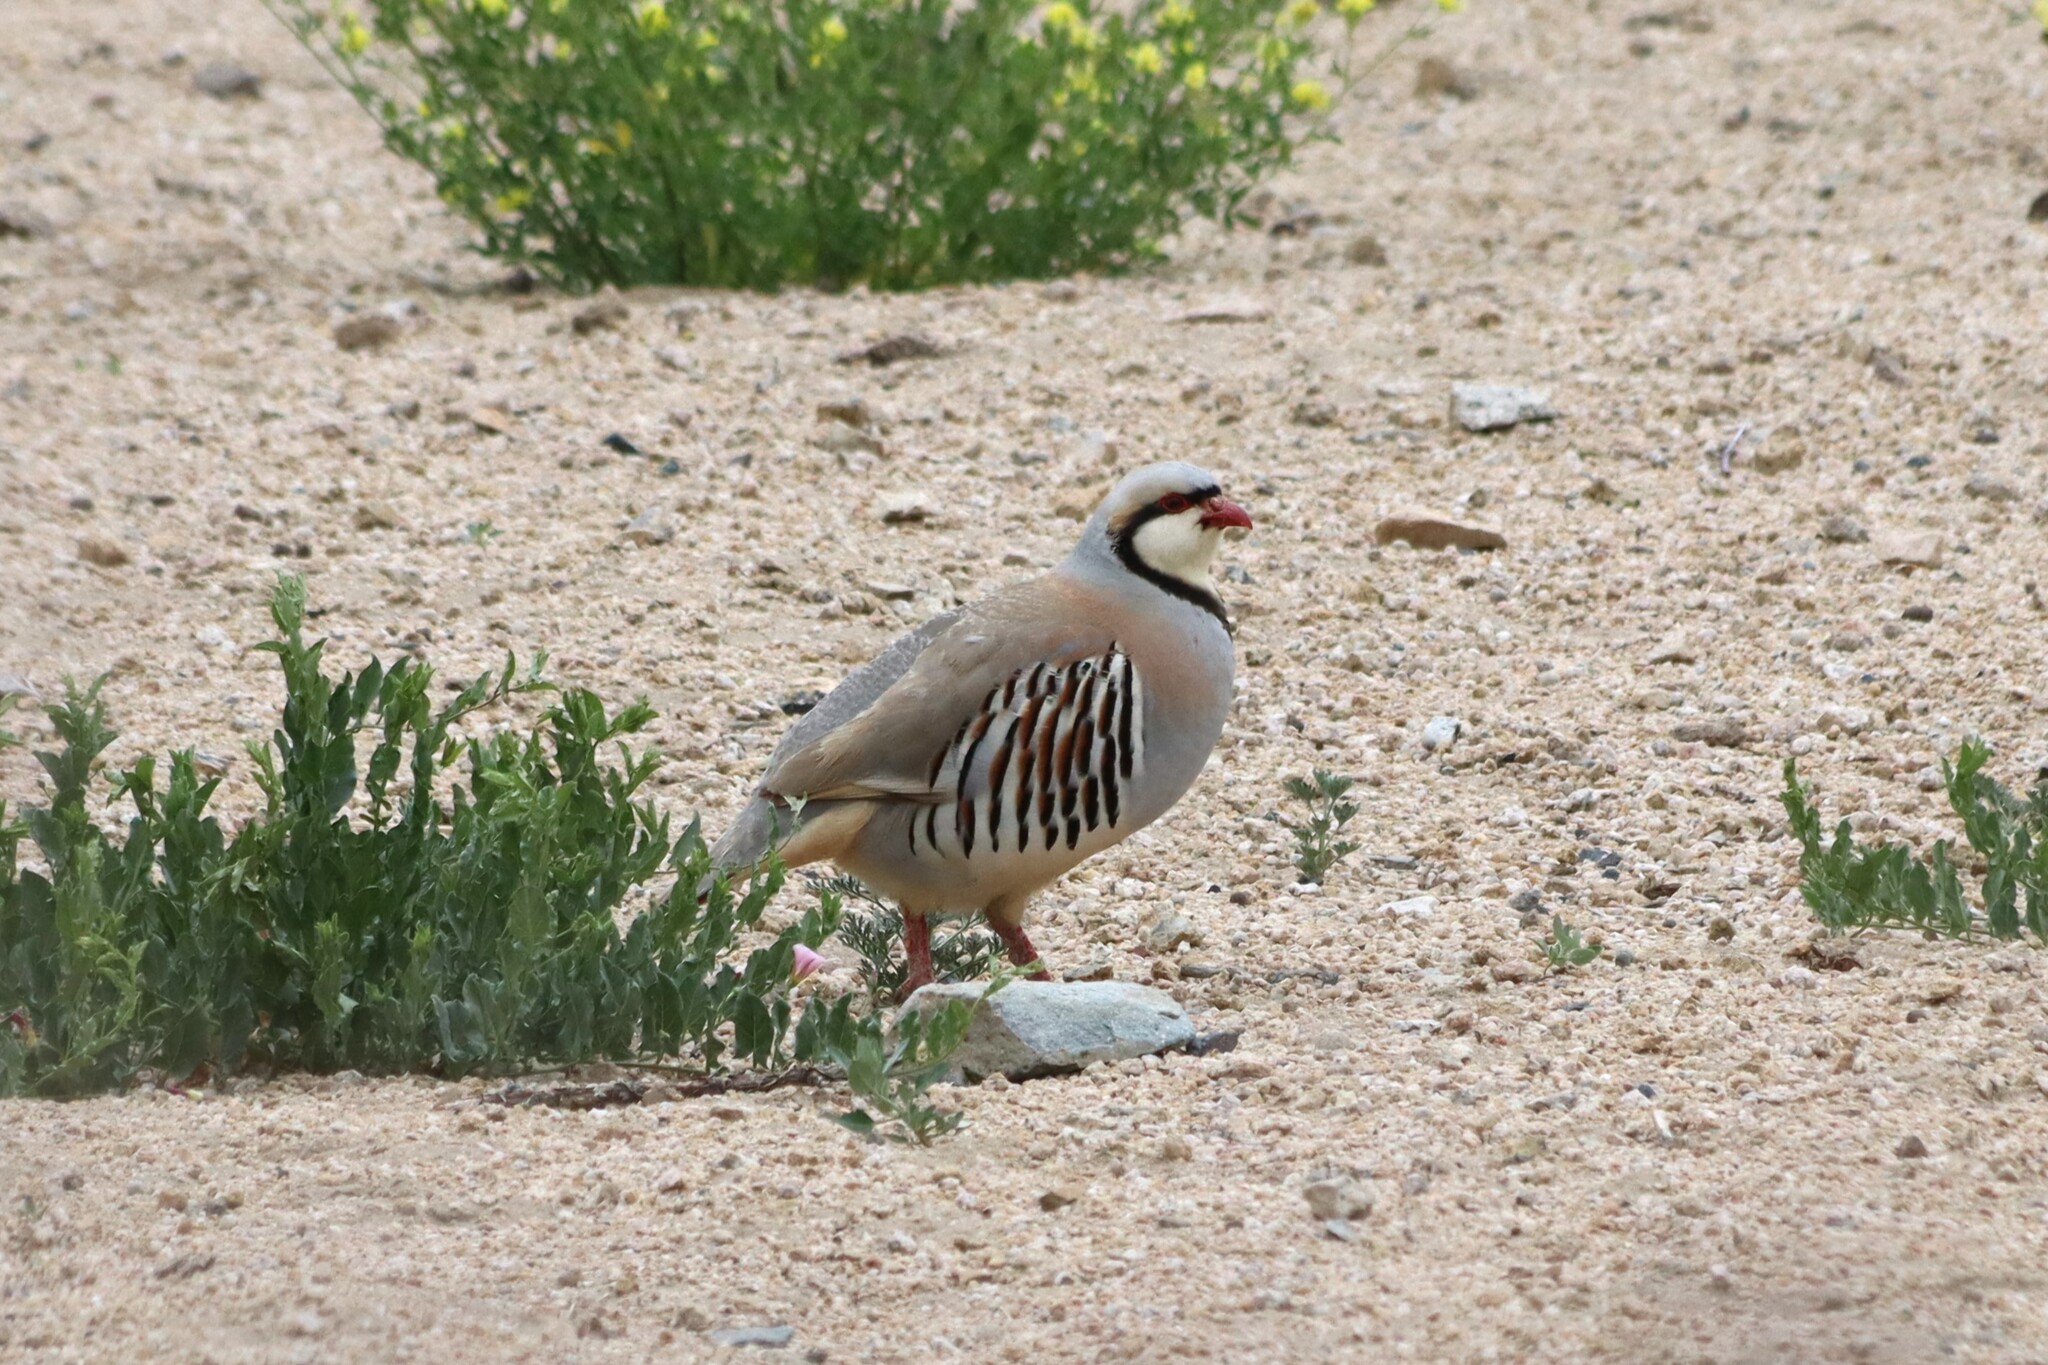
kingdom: Animalia
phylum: Chordata
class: Aves
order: Galliformes
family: Phasianidae
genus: Alectoris
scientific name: Alectoris chukar
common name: Chukar
